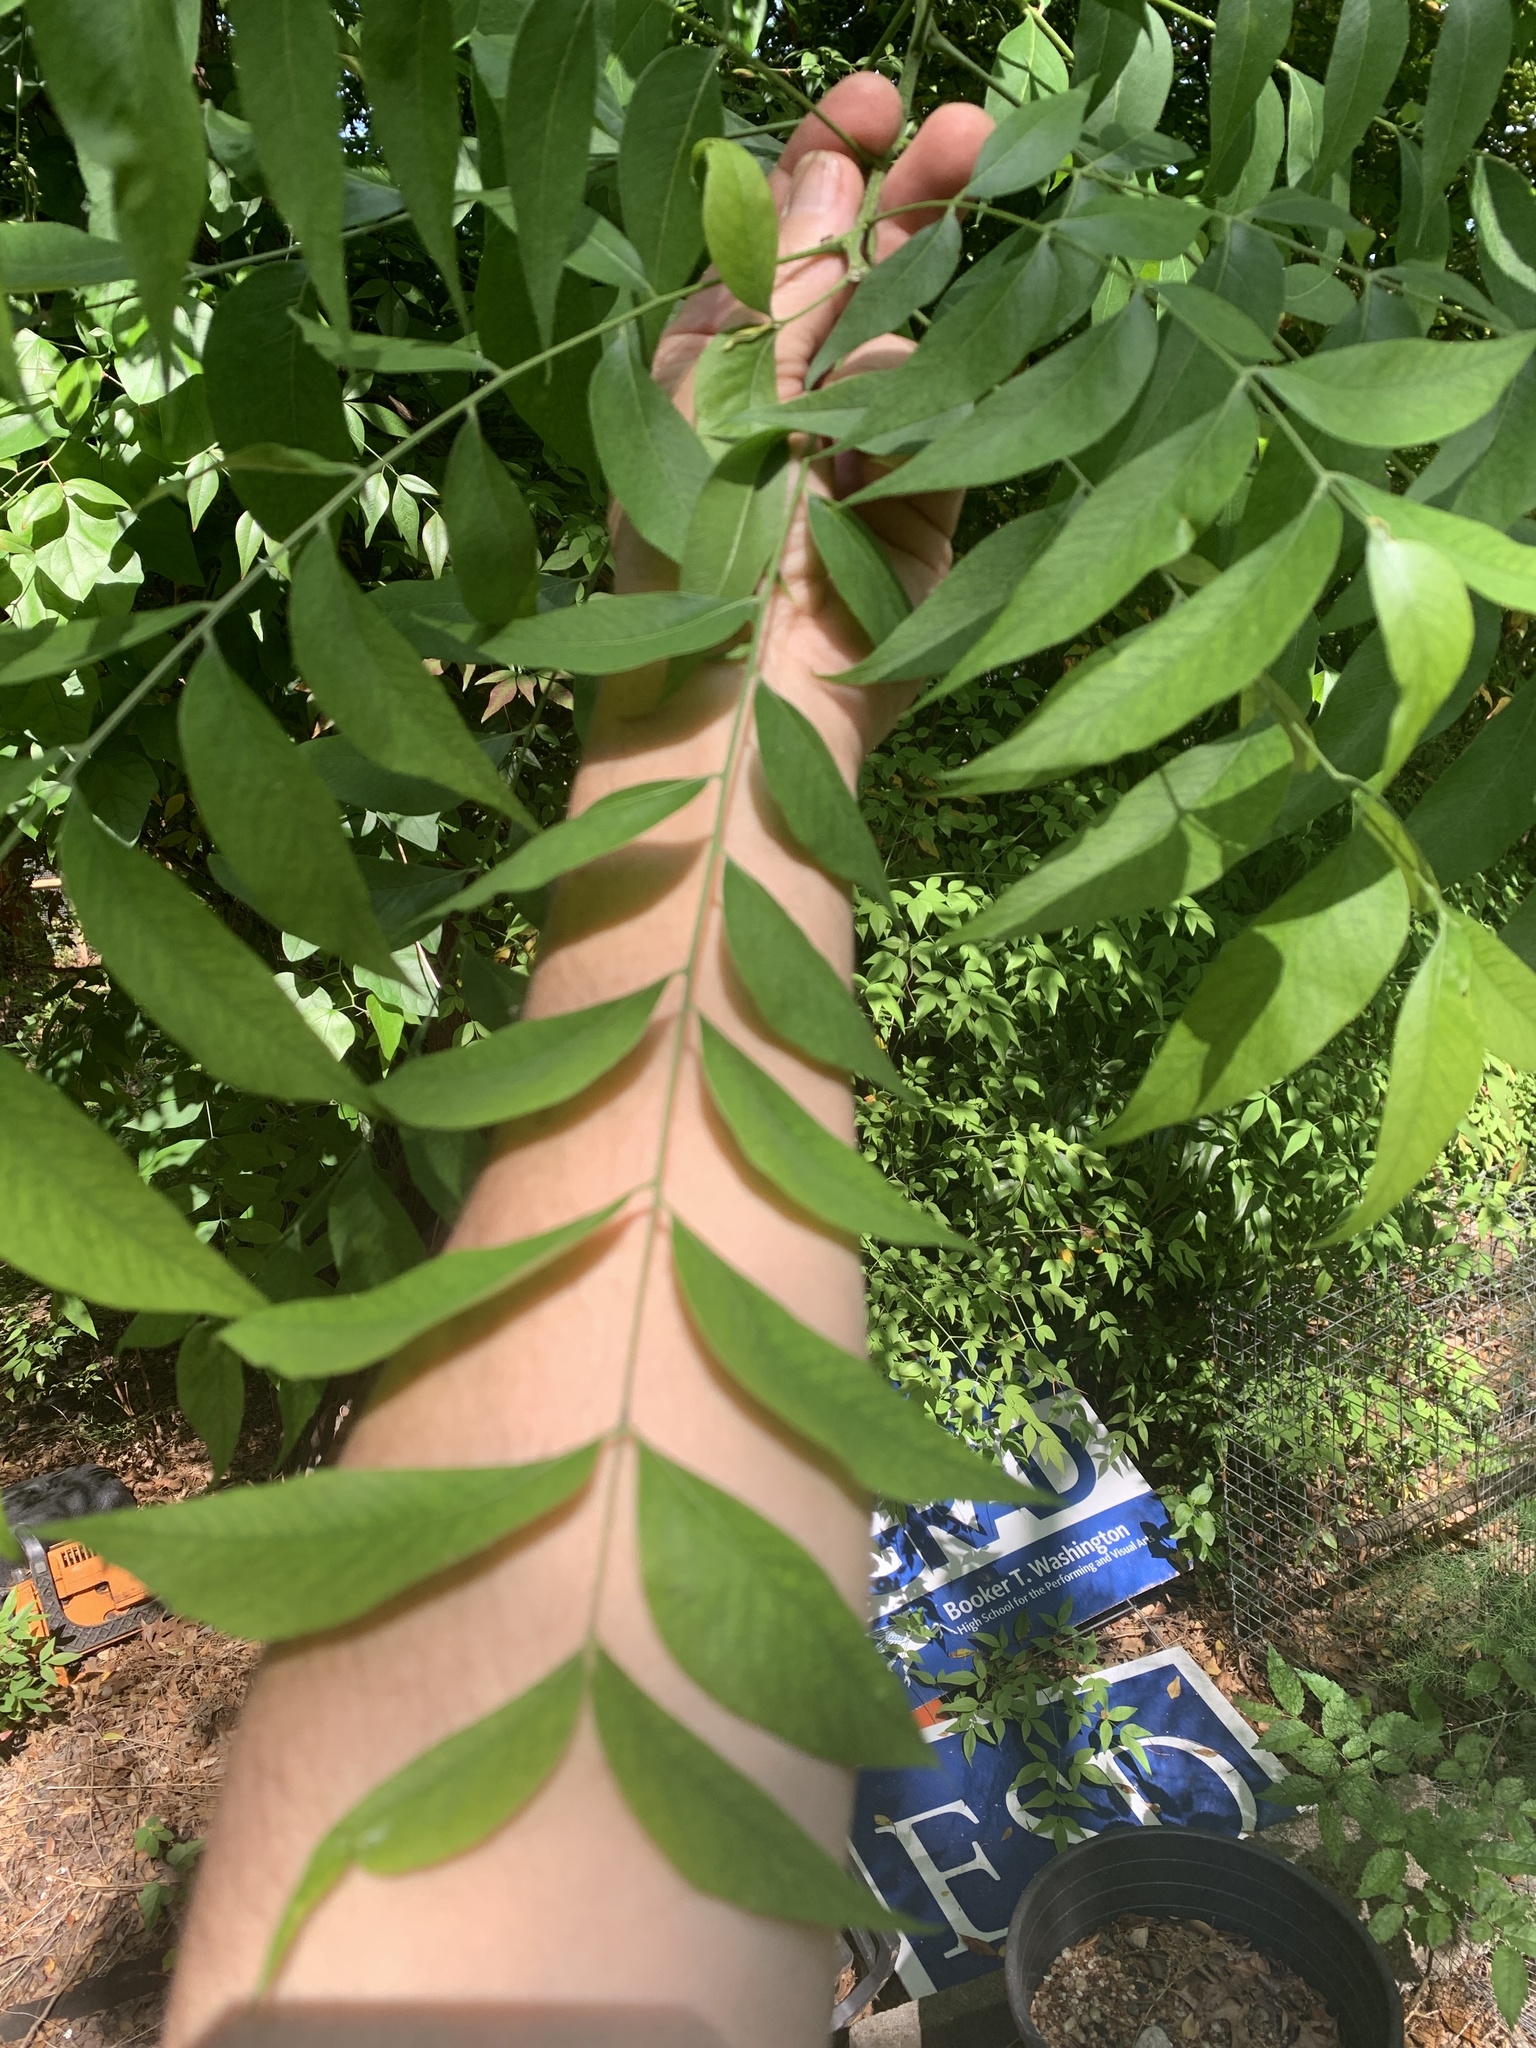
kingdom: Plantae
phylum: Tracheophyta
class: Magnoliopsida
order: Sapindales
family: Sapindaceae
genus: Sapindus
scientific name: Sapindus drummondii
